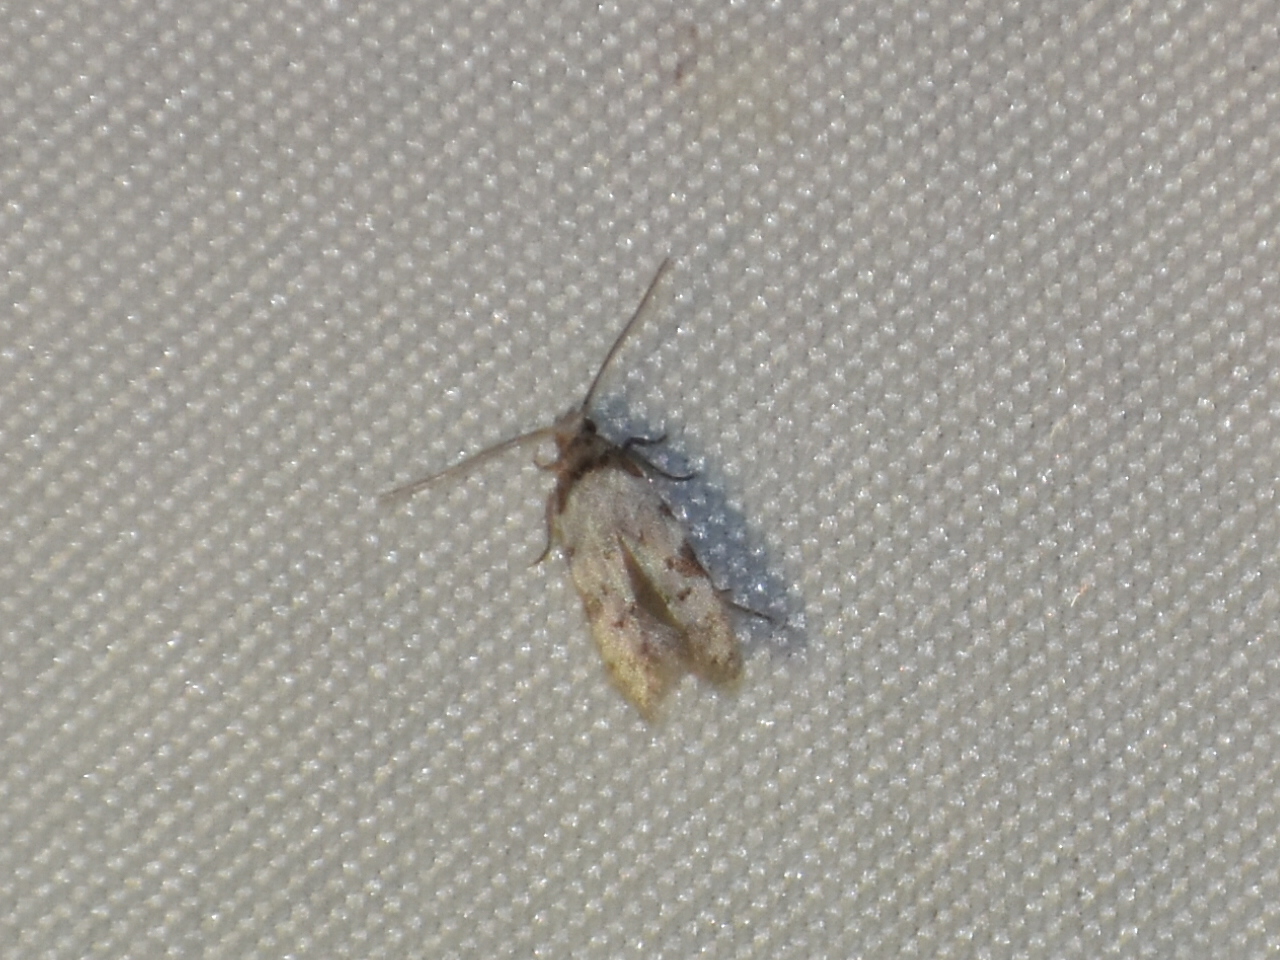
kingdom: Animalia
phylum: Arthropoda
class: Insecta
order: Lepidoptera
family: Autostichidae
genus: Taygete
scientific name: Taygete attributella
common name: Triangle-marked twirler moth
